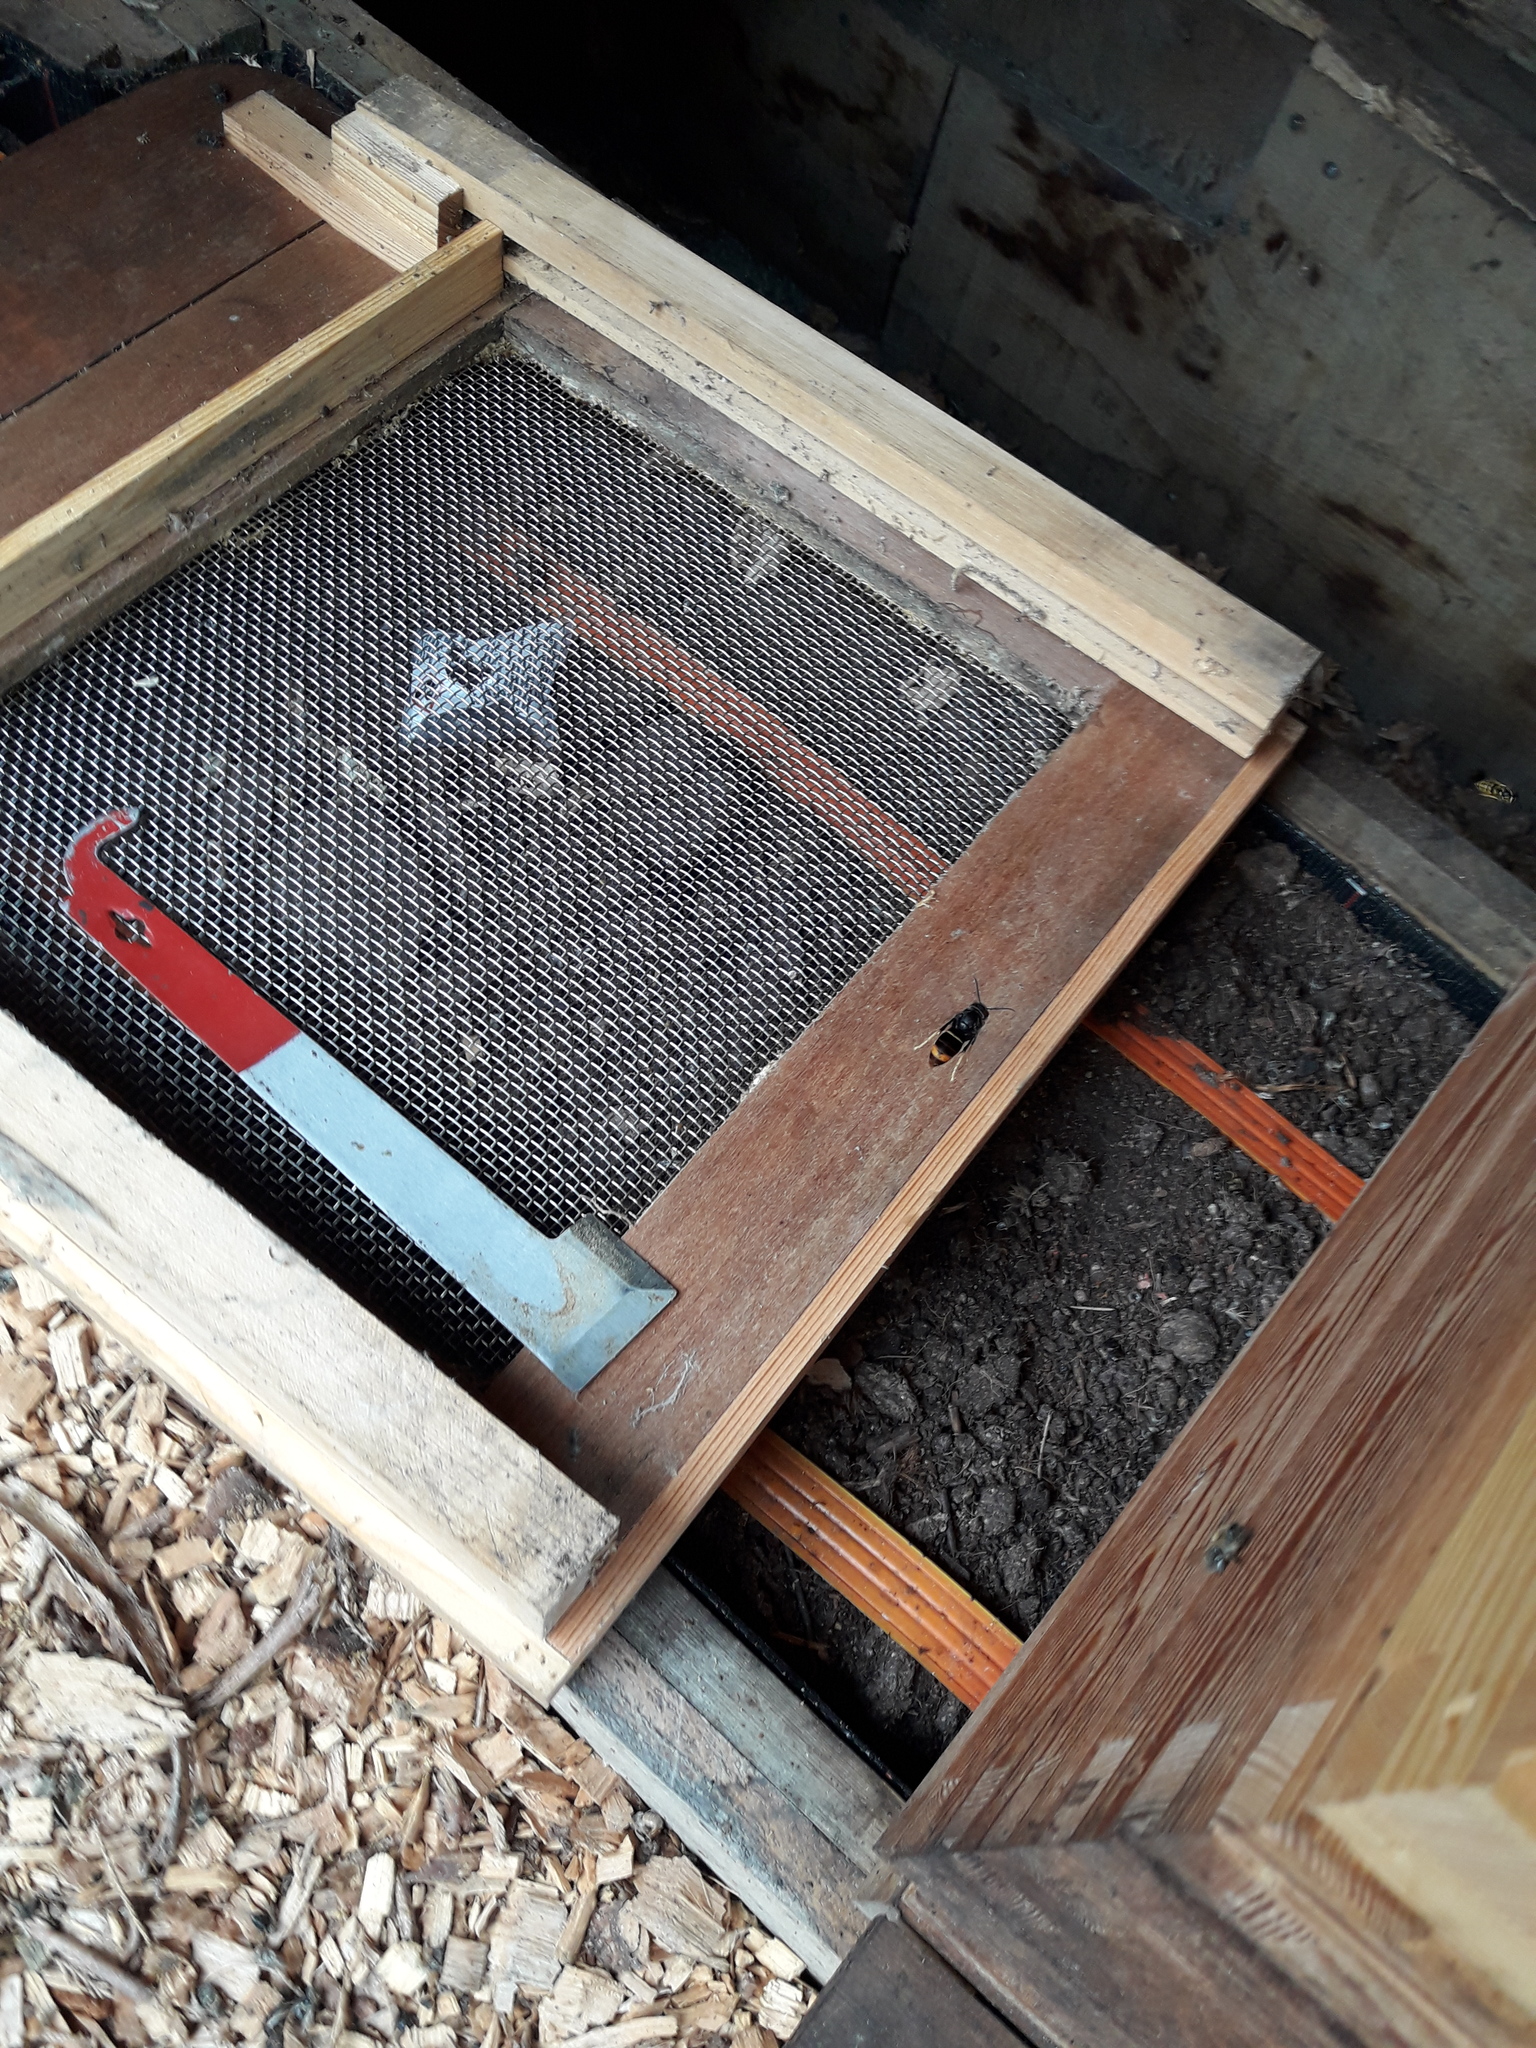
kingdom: Animalia
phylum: Arthropoda
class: Insecta
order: Hymenoptera
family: Vespidae
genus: Vespa
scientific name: Vespa velutina
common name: Asian hornet
